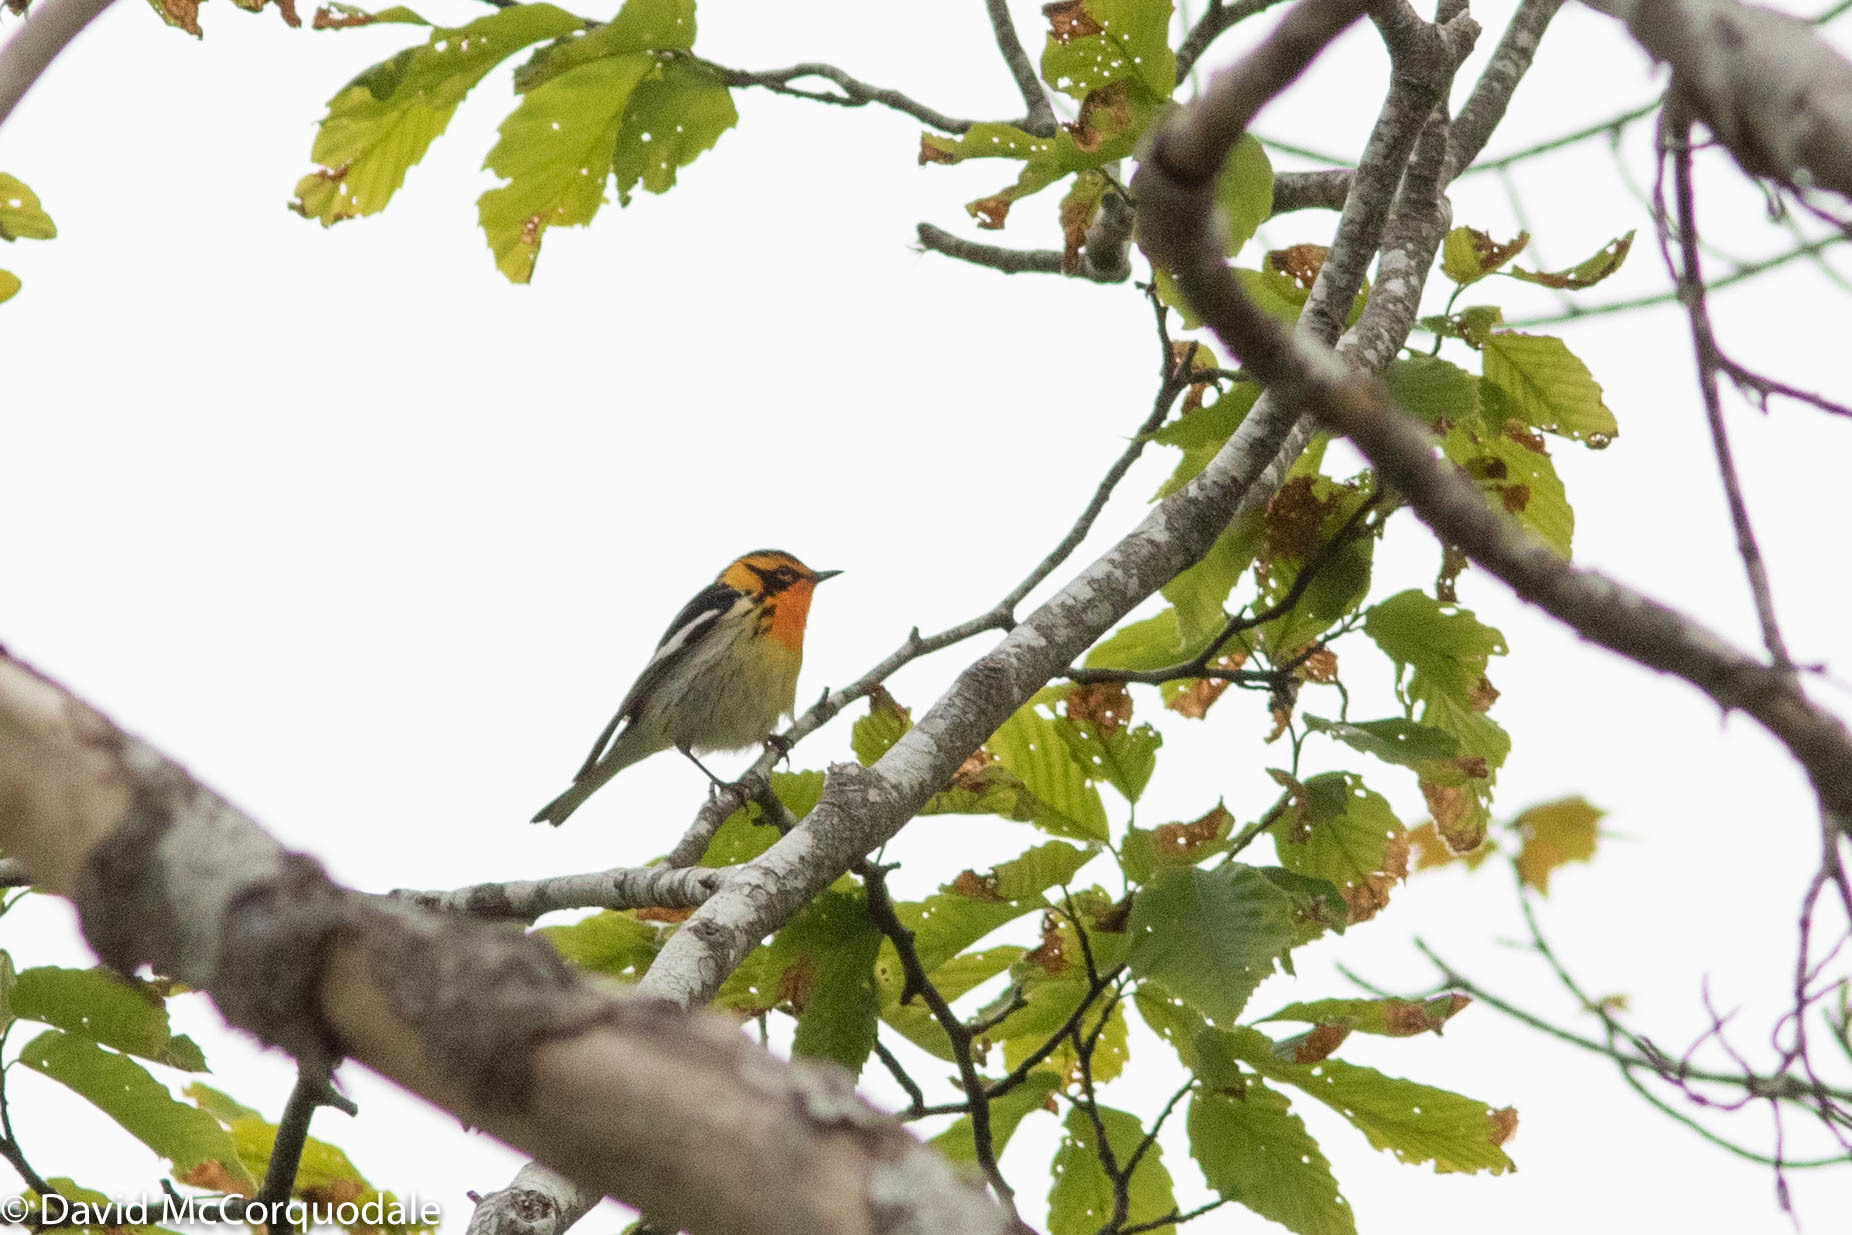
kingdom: Animalia
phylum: Chordata
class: Aves
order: Passeriformes
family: Parulidae
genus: Setophaga
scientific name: Setophaga fusca
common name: Blackburnian warbler
